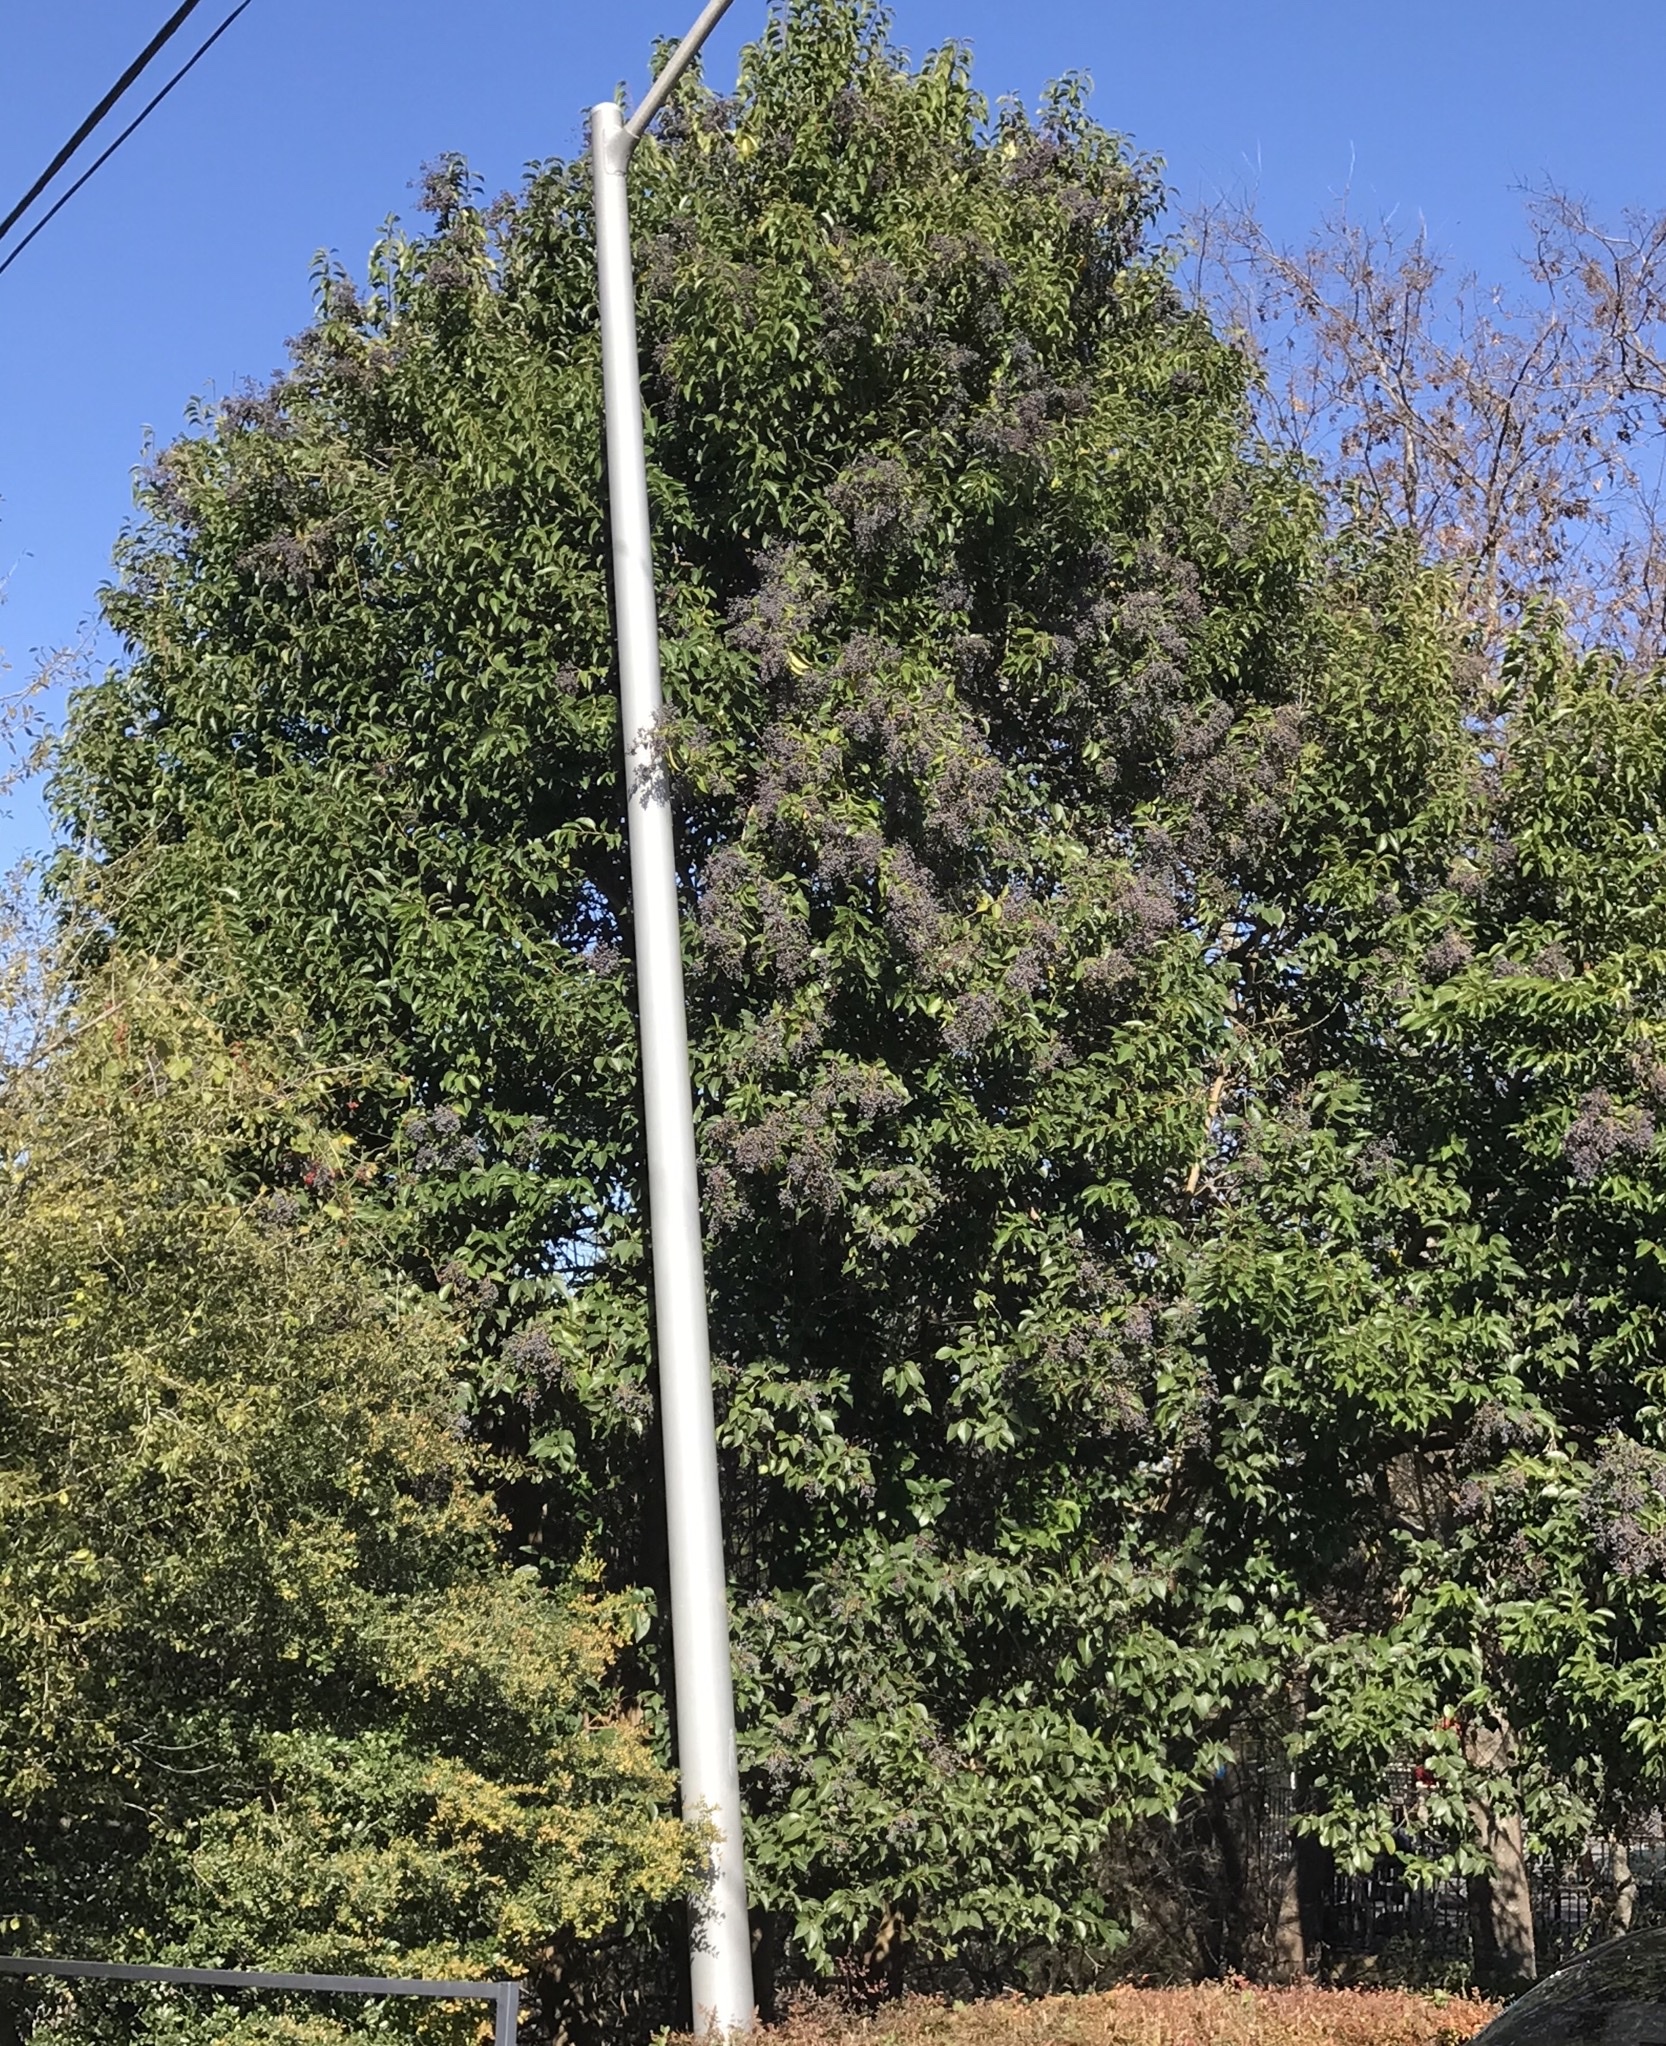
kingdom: Plantae
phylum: Tracheophyta
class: Magnoliopsida
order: Lamiales
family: Oleaceae
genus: Ligustrum
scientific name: Ligustrum lucidum
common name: Glossy privet
